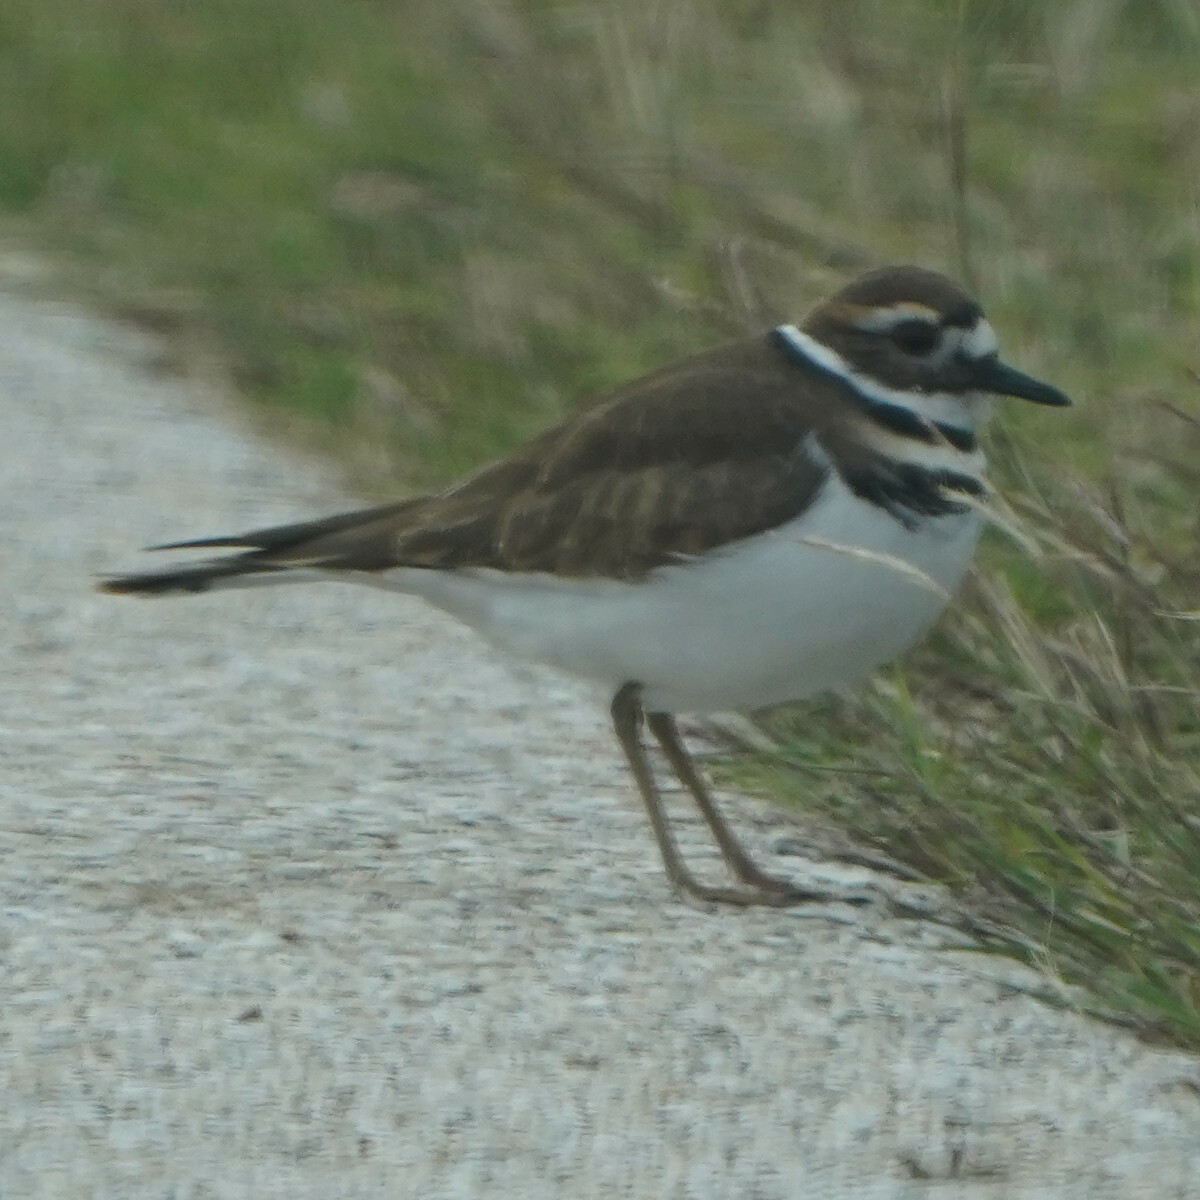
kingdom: Animalia
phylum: Chordata
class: Aves
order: Charadriiformes
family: Charadriidae
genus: Charadrius
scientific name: Charadrius vociferus
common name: Killdeer
